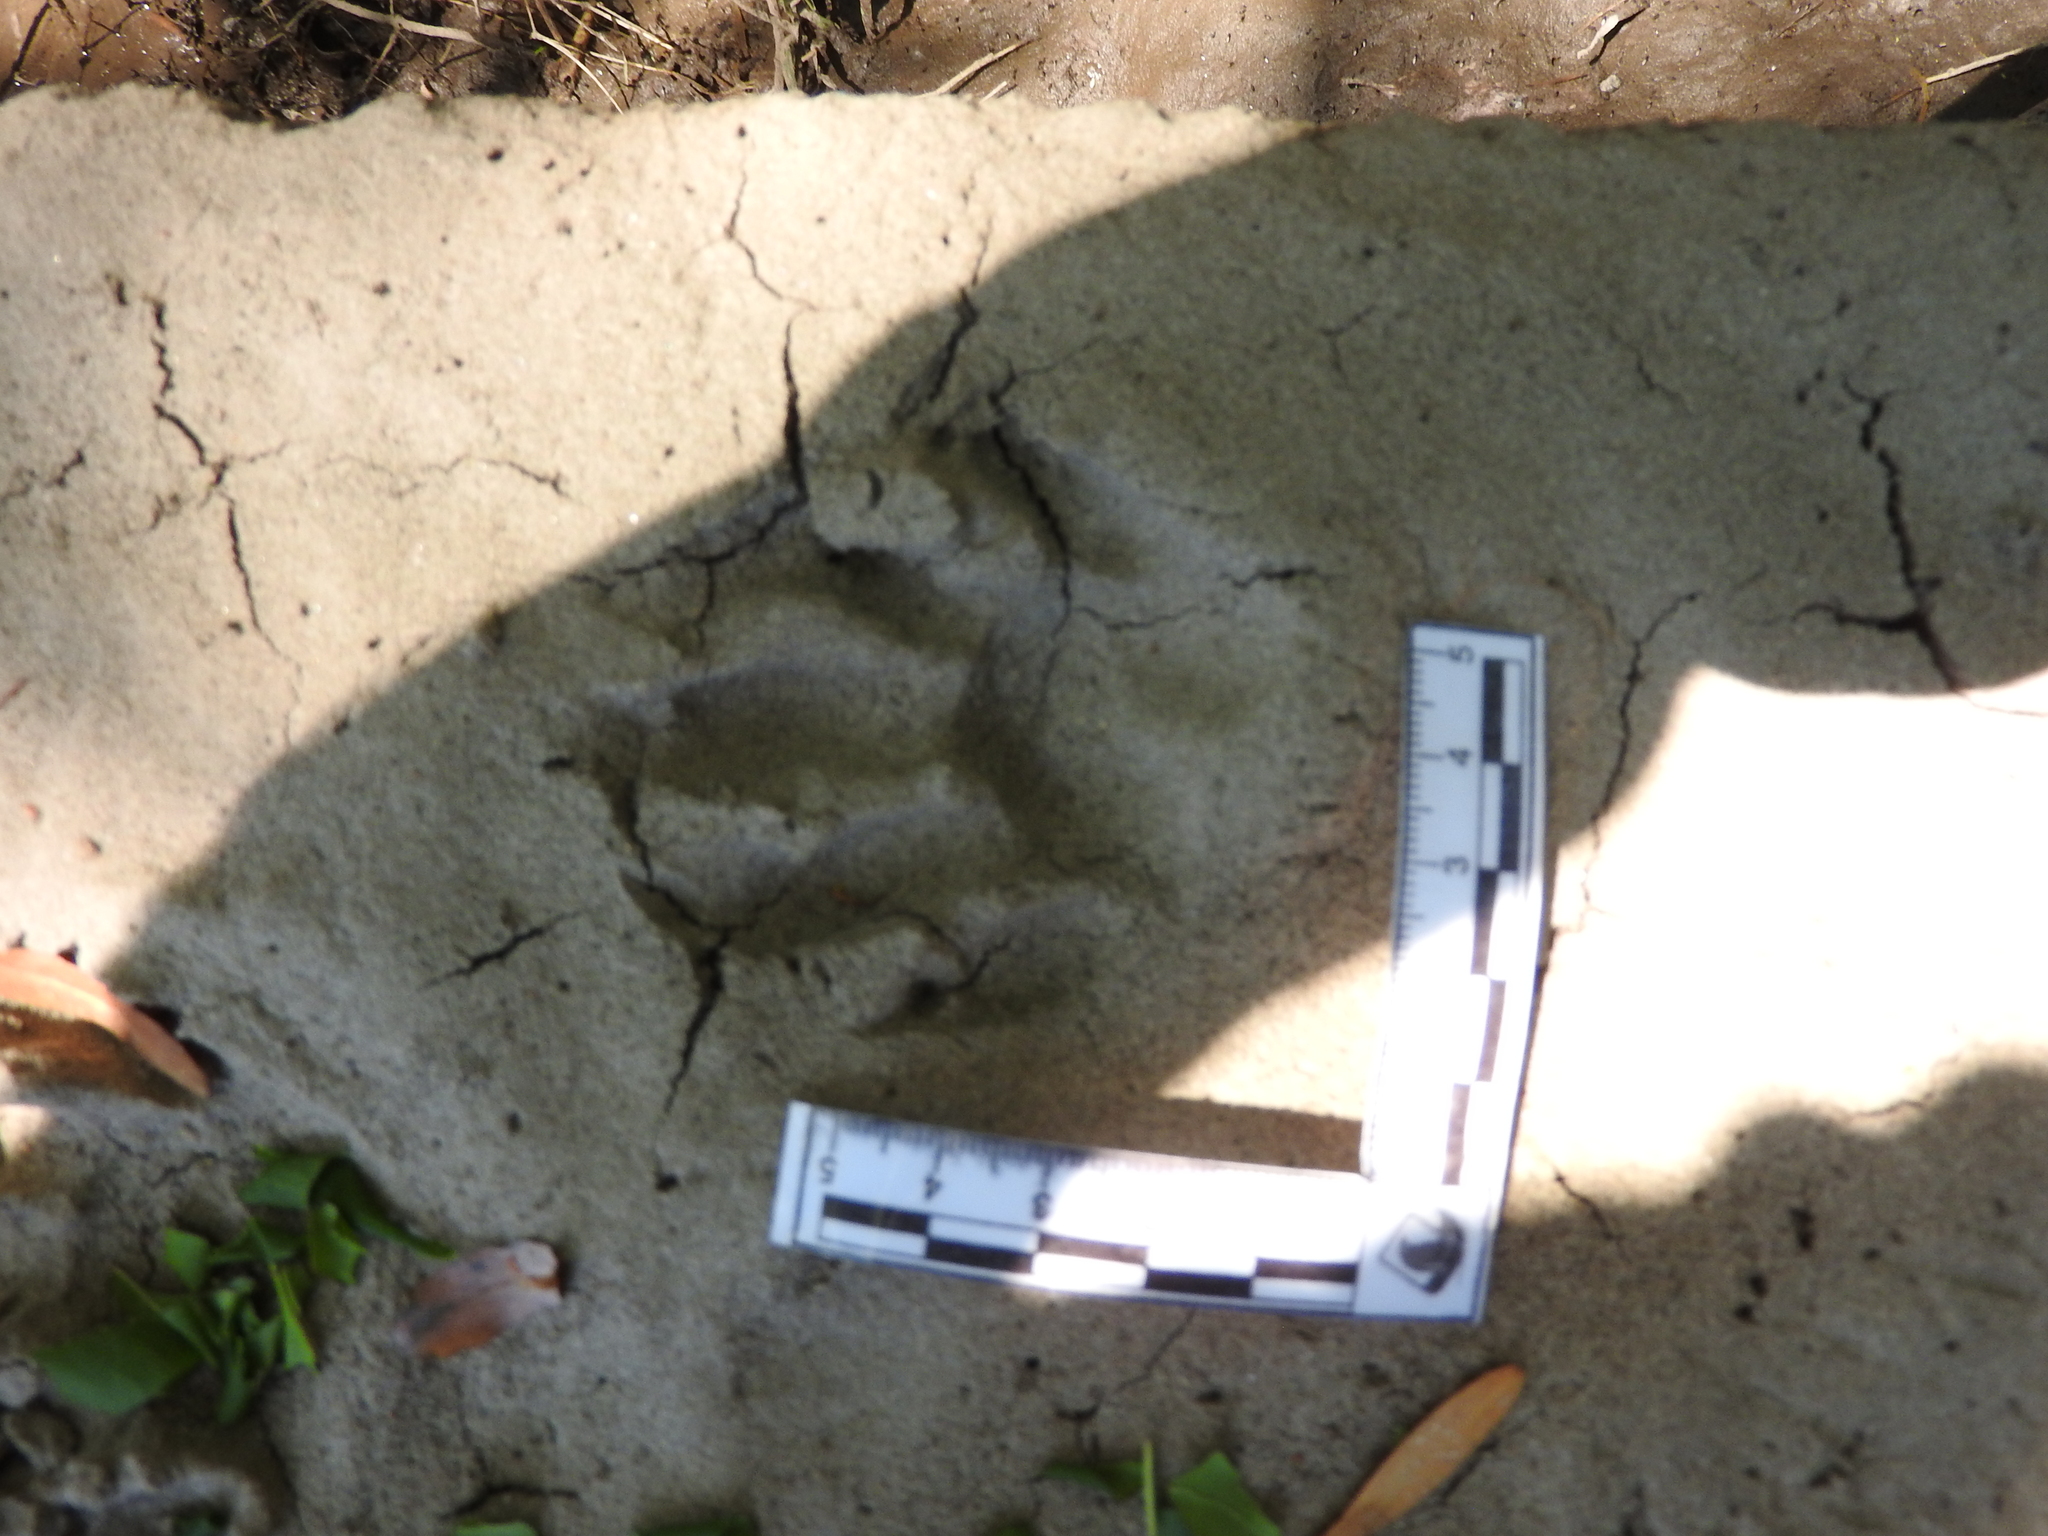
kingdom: Animalia
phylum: Chordata
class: Mammalia
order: Carnivora
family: Procyonidae
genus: Procyon
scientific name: Procyon lotor
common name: Raccoon
